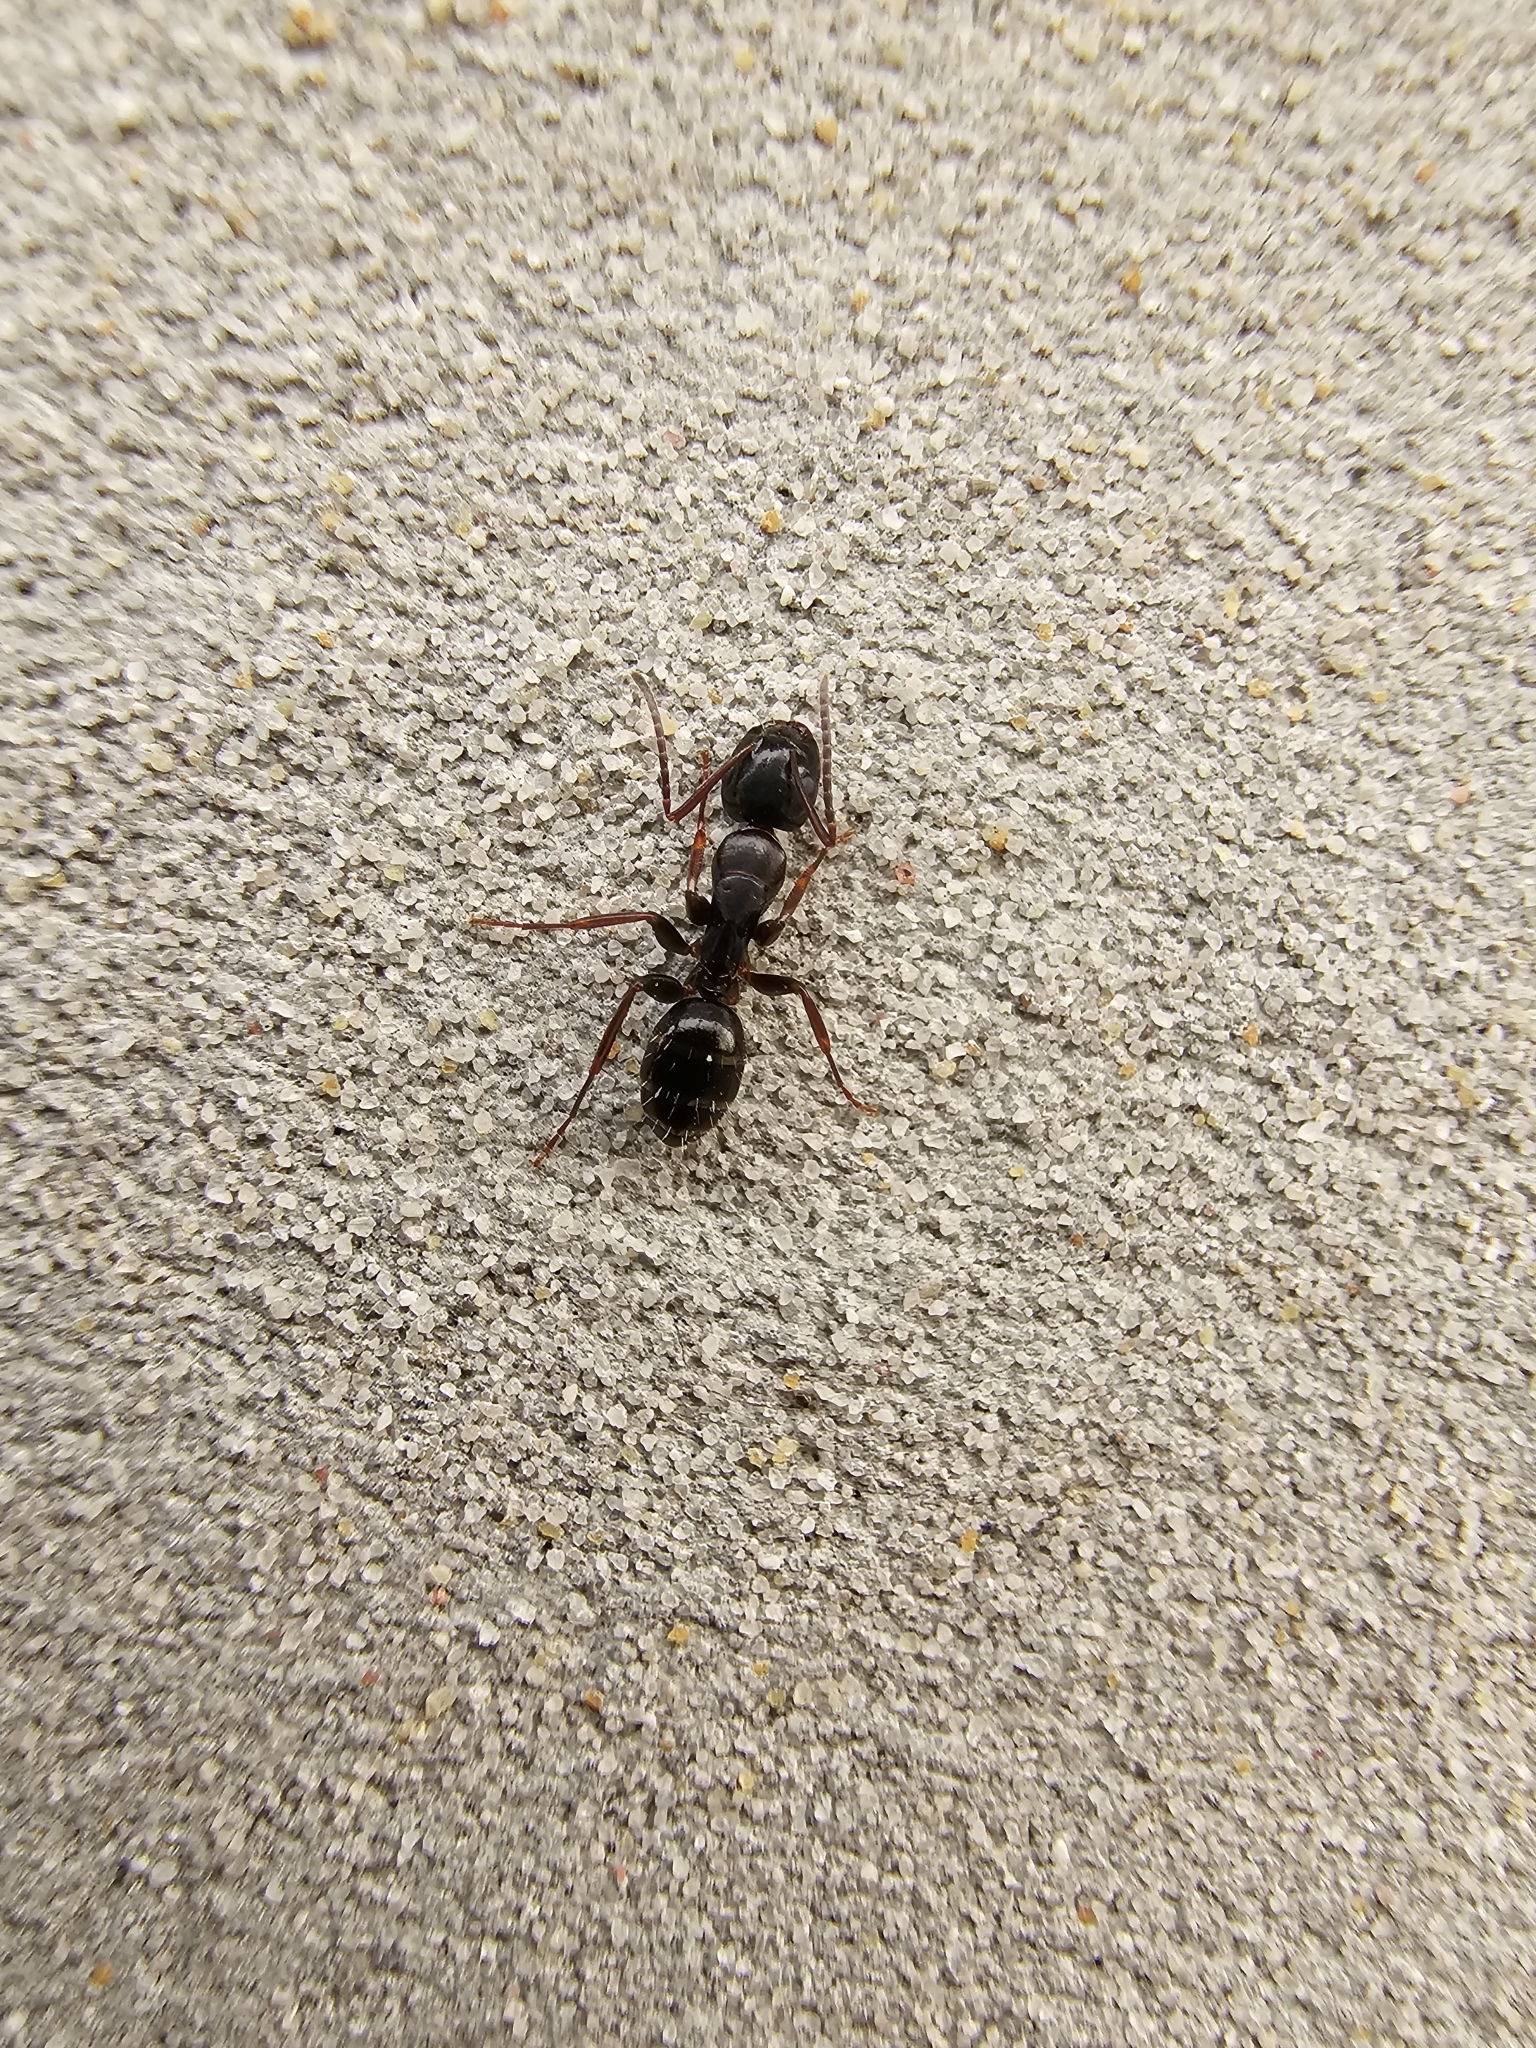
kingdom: Animalia
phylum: Arthropoda
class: Insecta
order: Hymenoptera
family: Formicidae
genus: Camponotus
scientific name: Camponotus fallax
